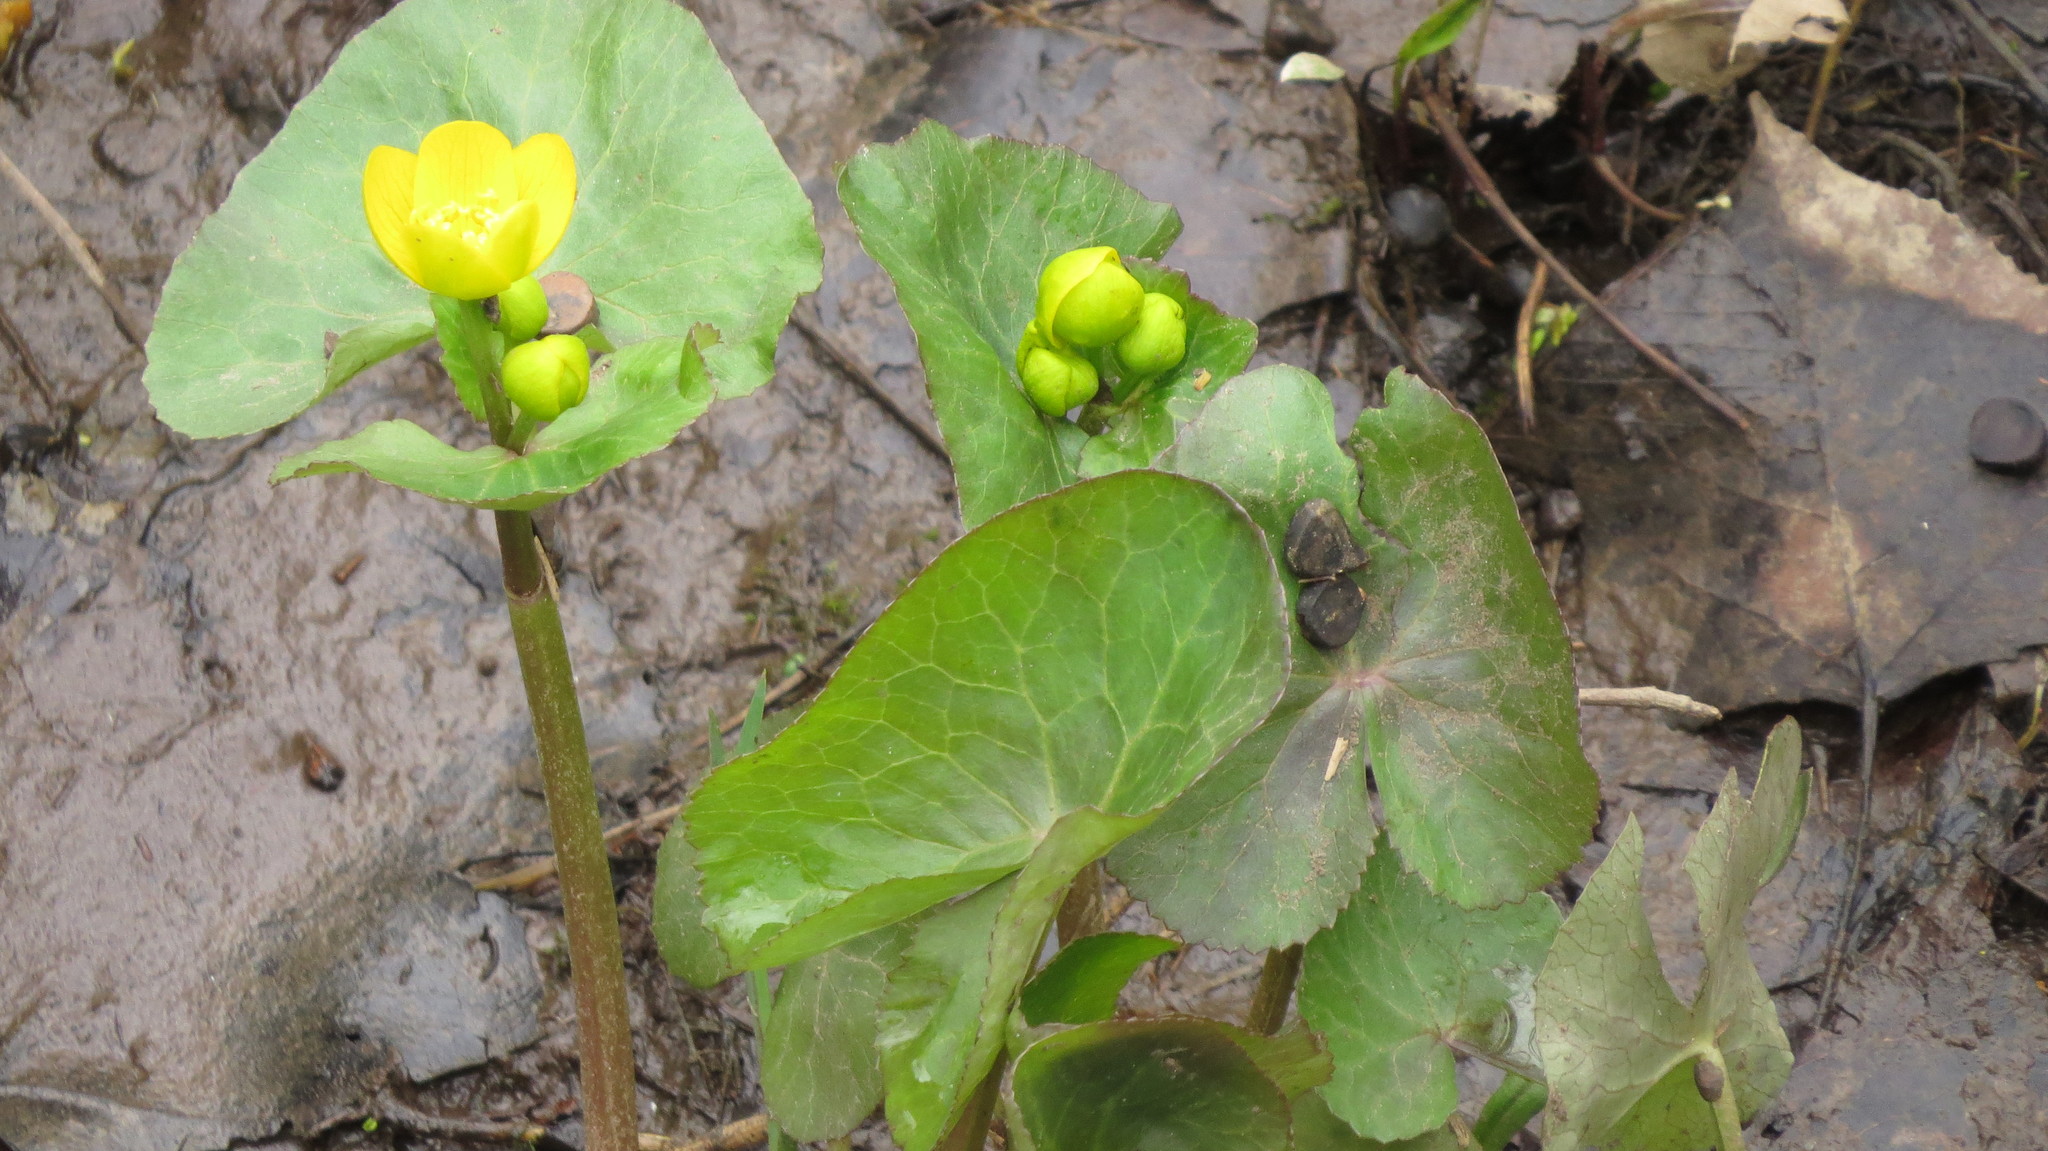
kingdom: Plantae
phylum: Tracheophyta
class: Magnoliopsida
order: Ranunculales
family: Ranunculaceae
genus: Caltha
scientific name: Caltha palustris
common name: Marsh marigold
